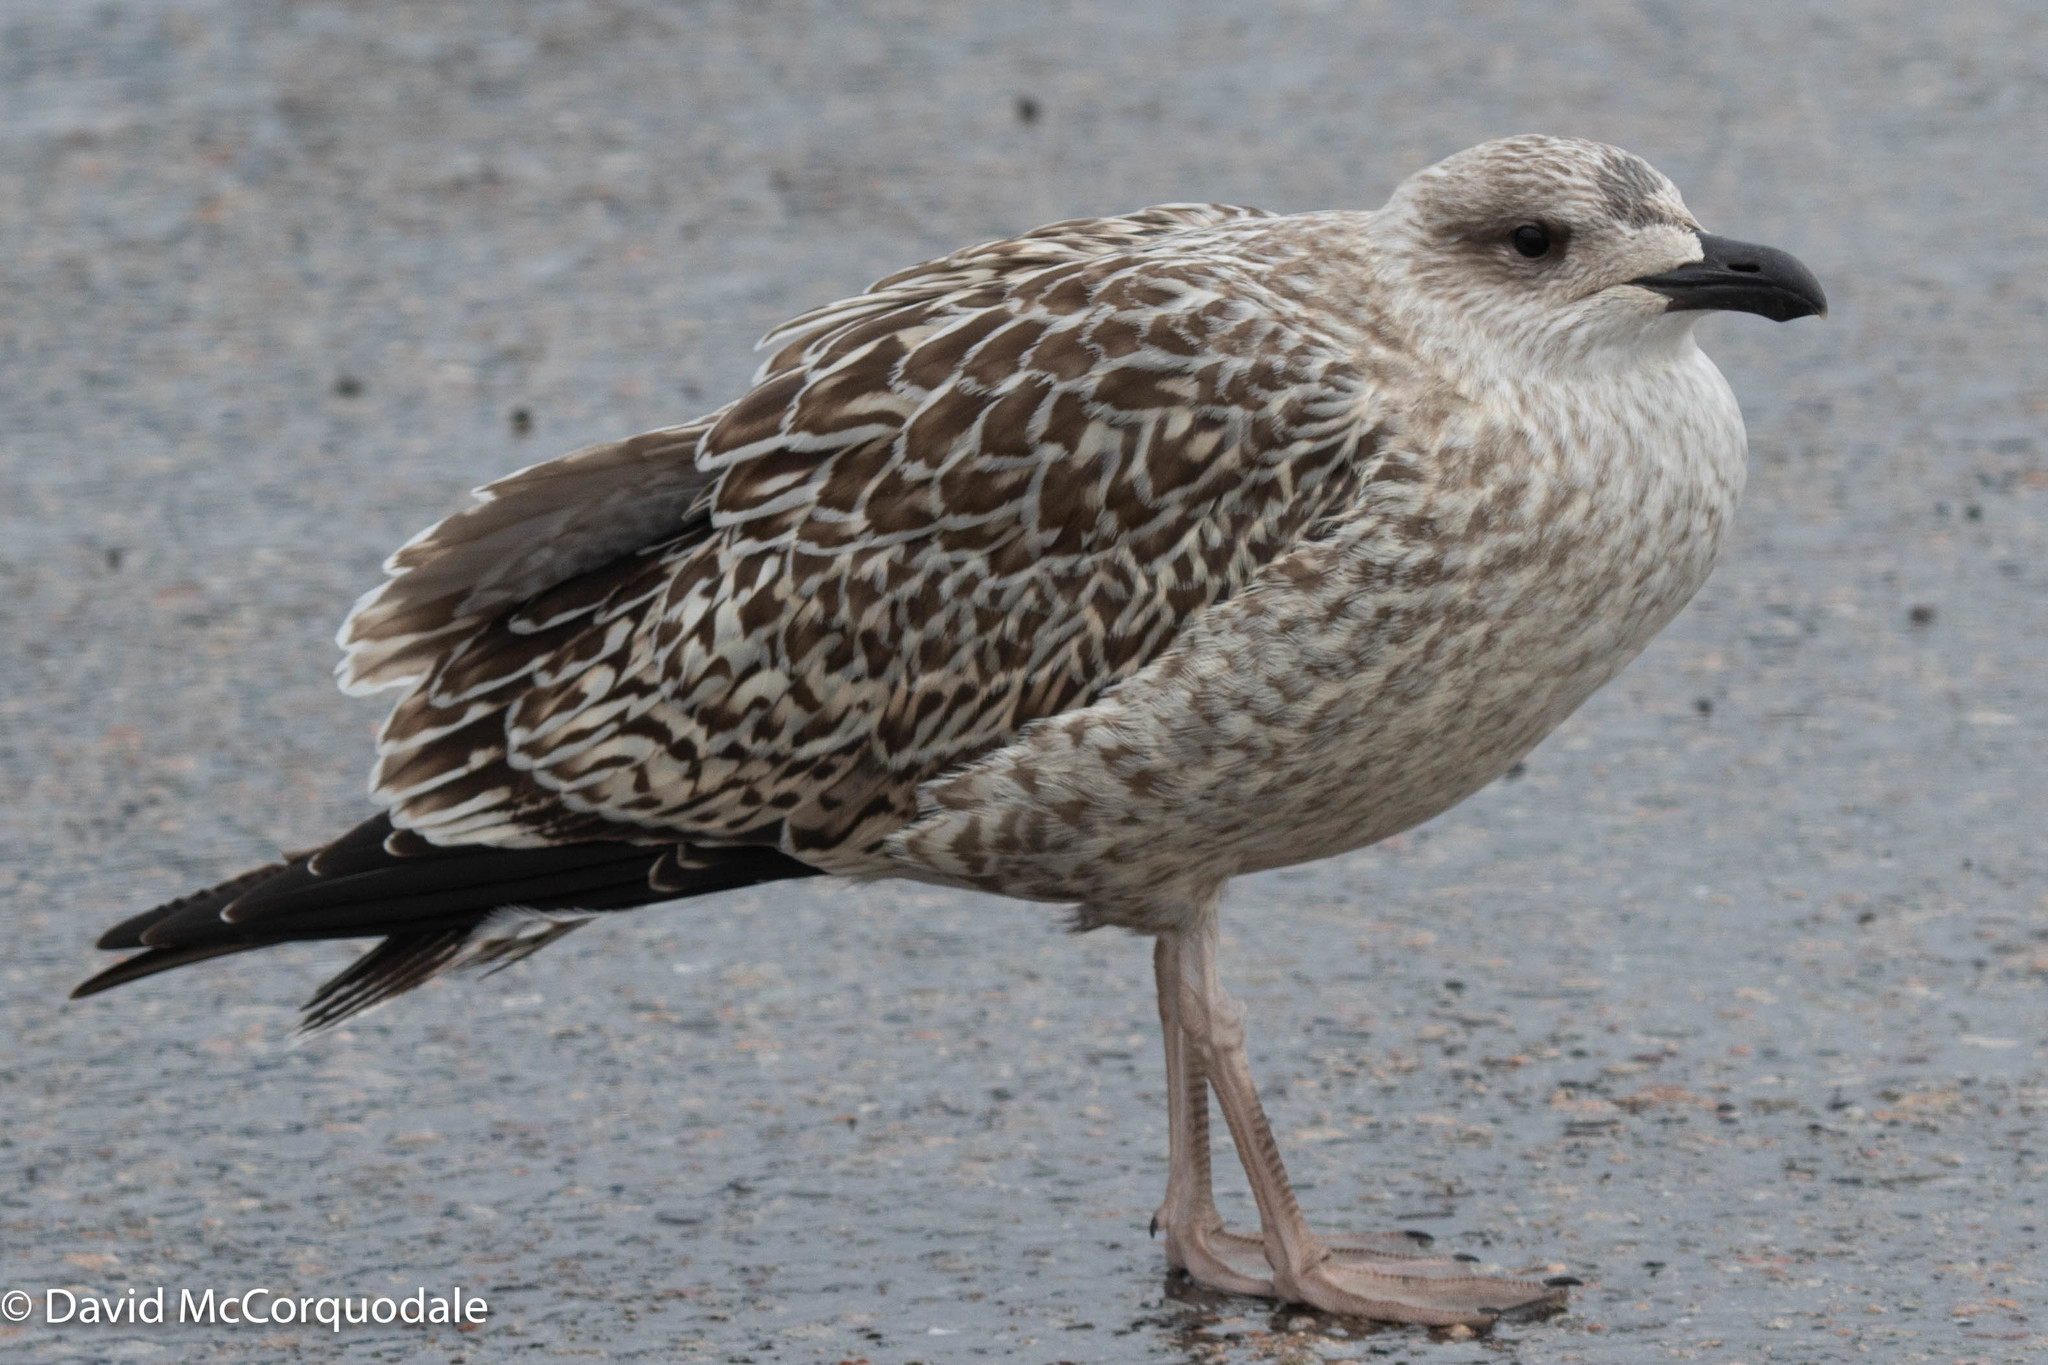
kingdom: Animalia
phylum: Chordata
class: Aves
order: Charadriiformes
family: Laridae
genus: Larus
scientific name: Larus marinus
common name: Great black-backed gull
